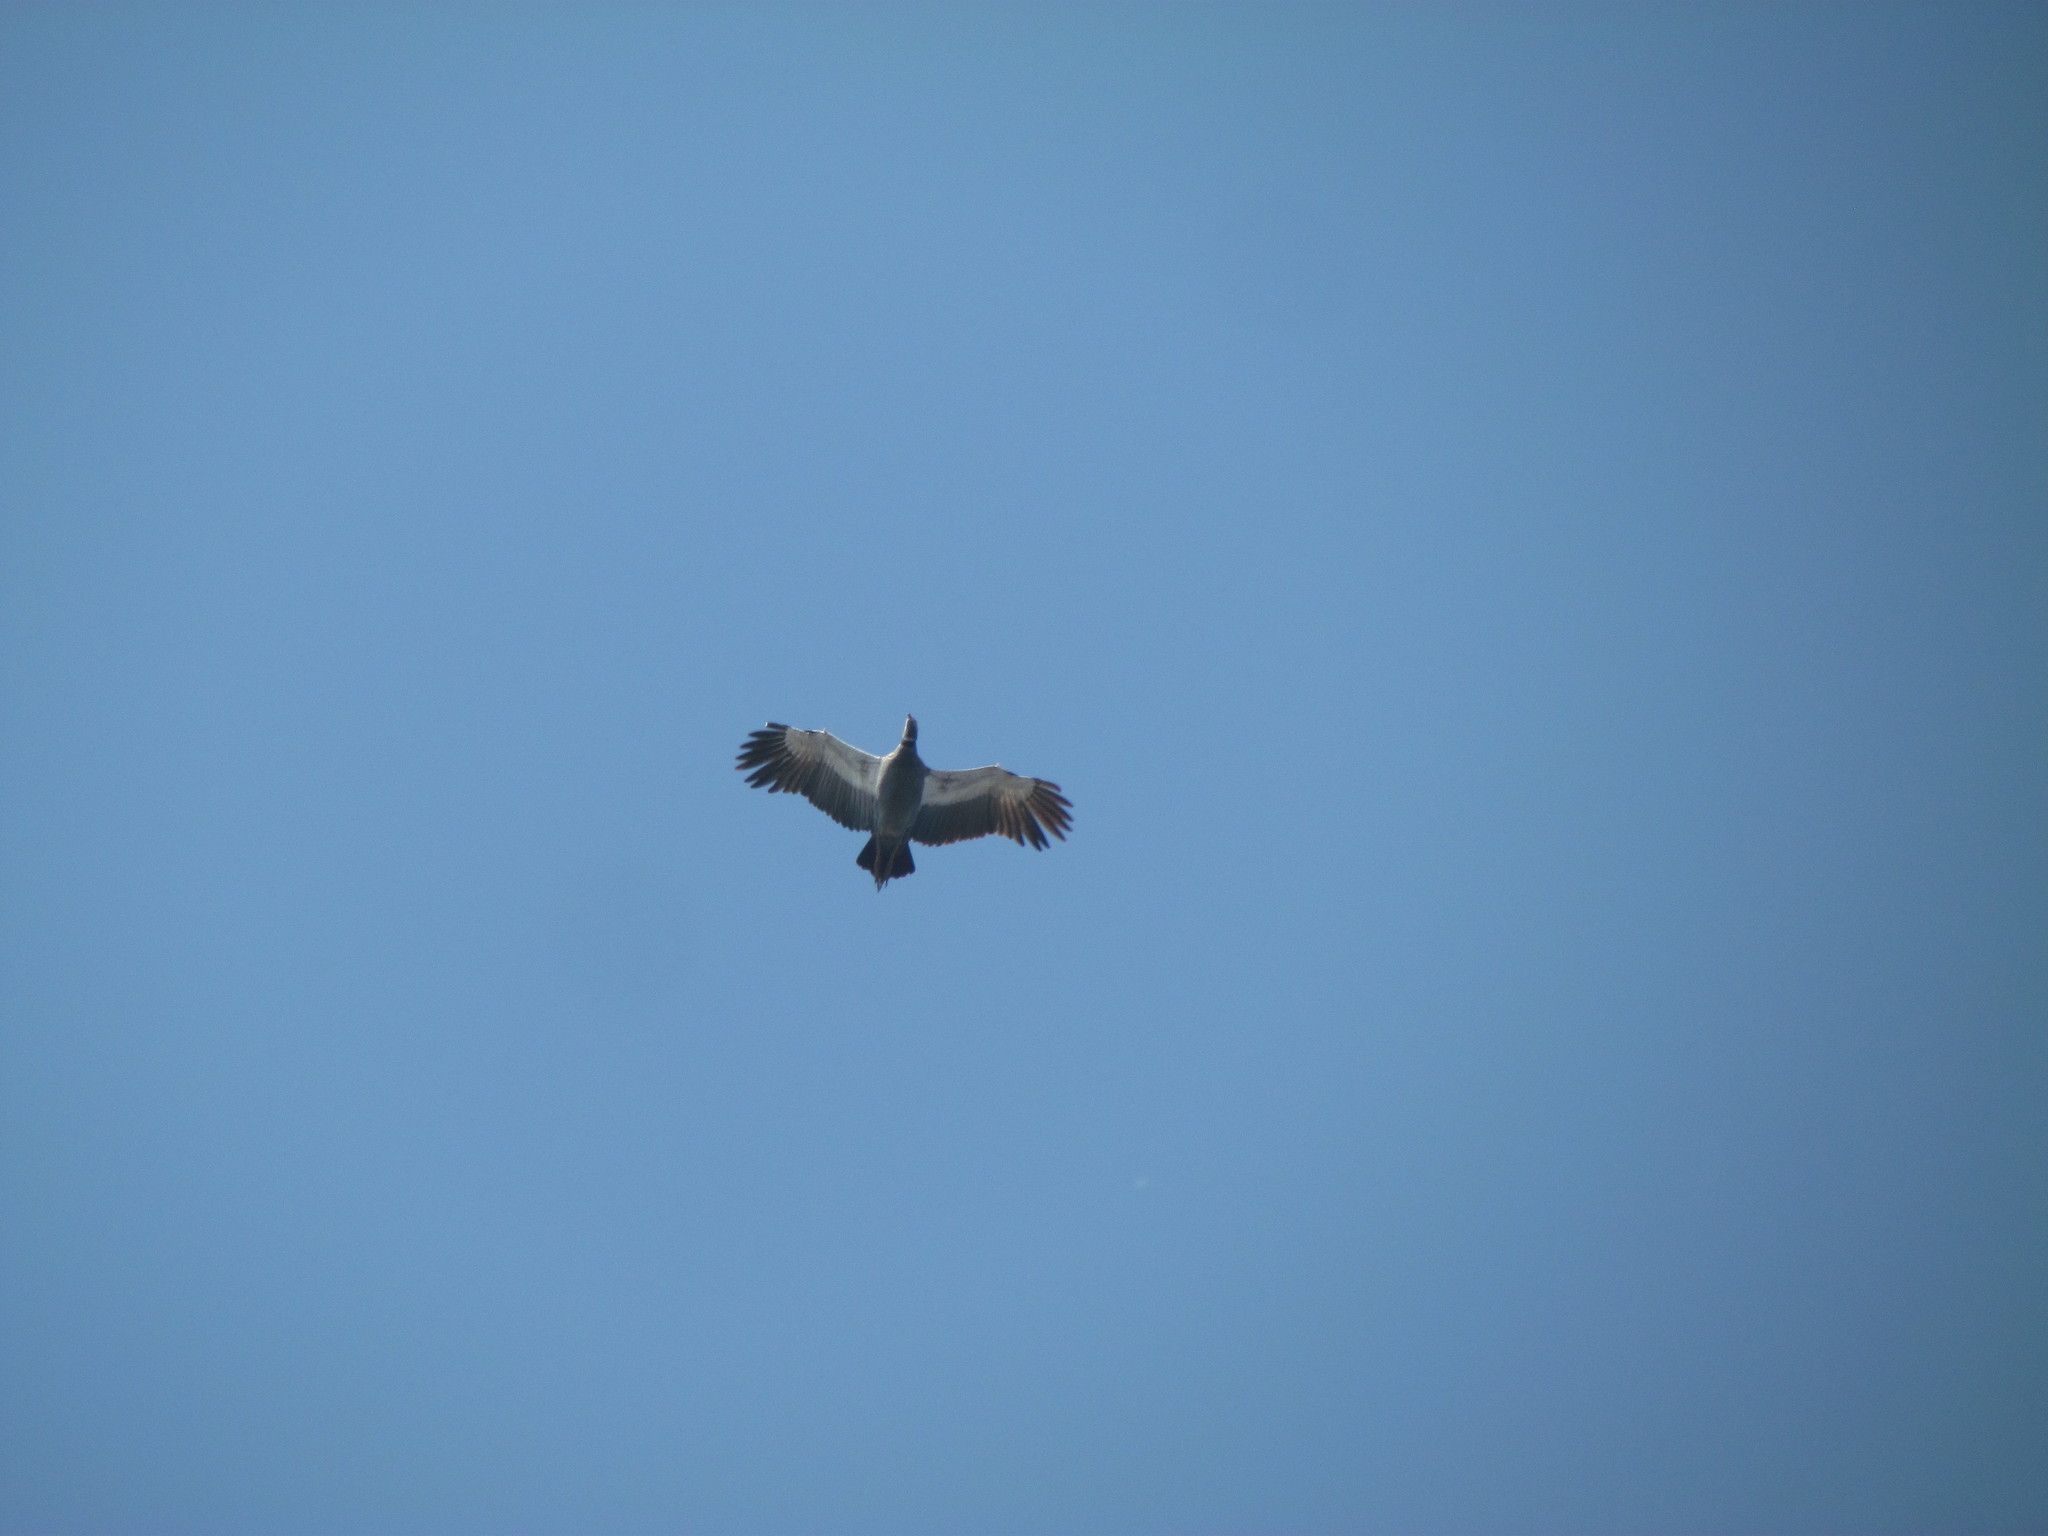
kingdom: Animalia
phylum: Chordata
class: Aves
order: Anseriformes
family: Anhimidae
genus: Chauna
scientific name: Chauna torquata
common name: Southern screamer
